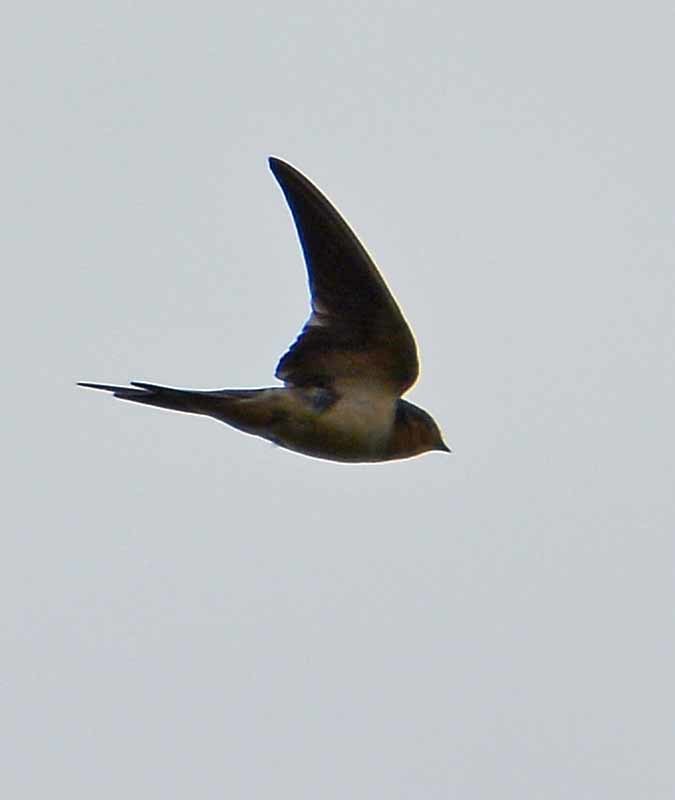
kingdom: Animalia
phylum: Chordata
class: Aves
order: Passeriformes
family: Hirundinidae
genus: Hirundo
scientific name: Hirundo rustica
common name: Barn swallow
